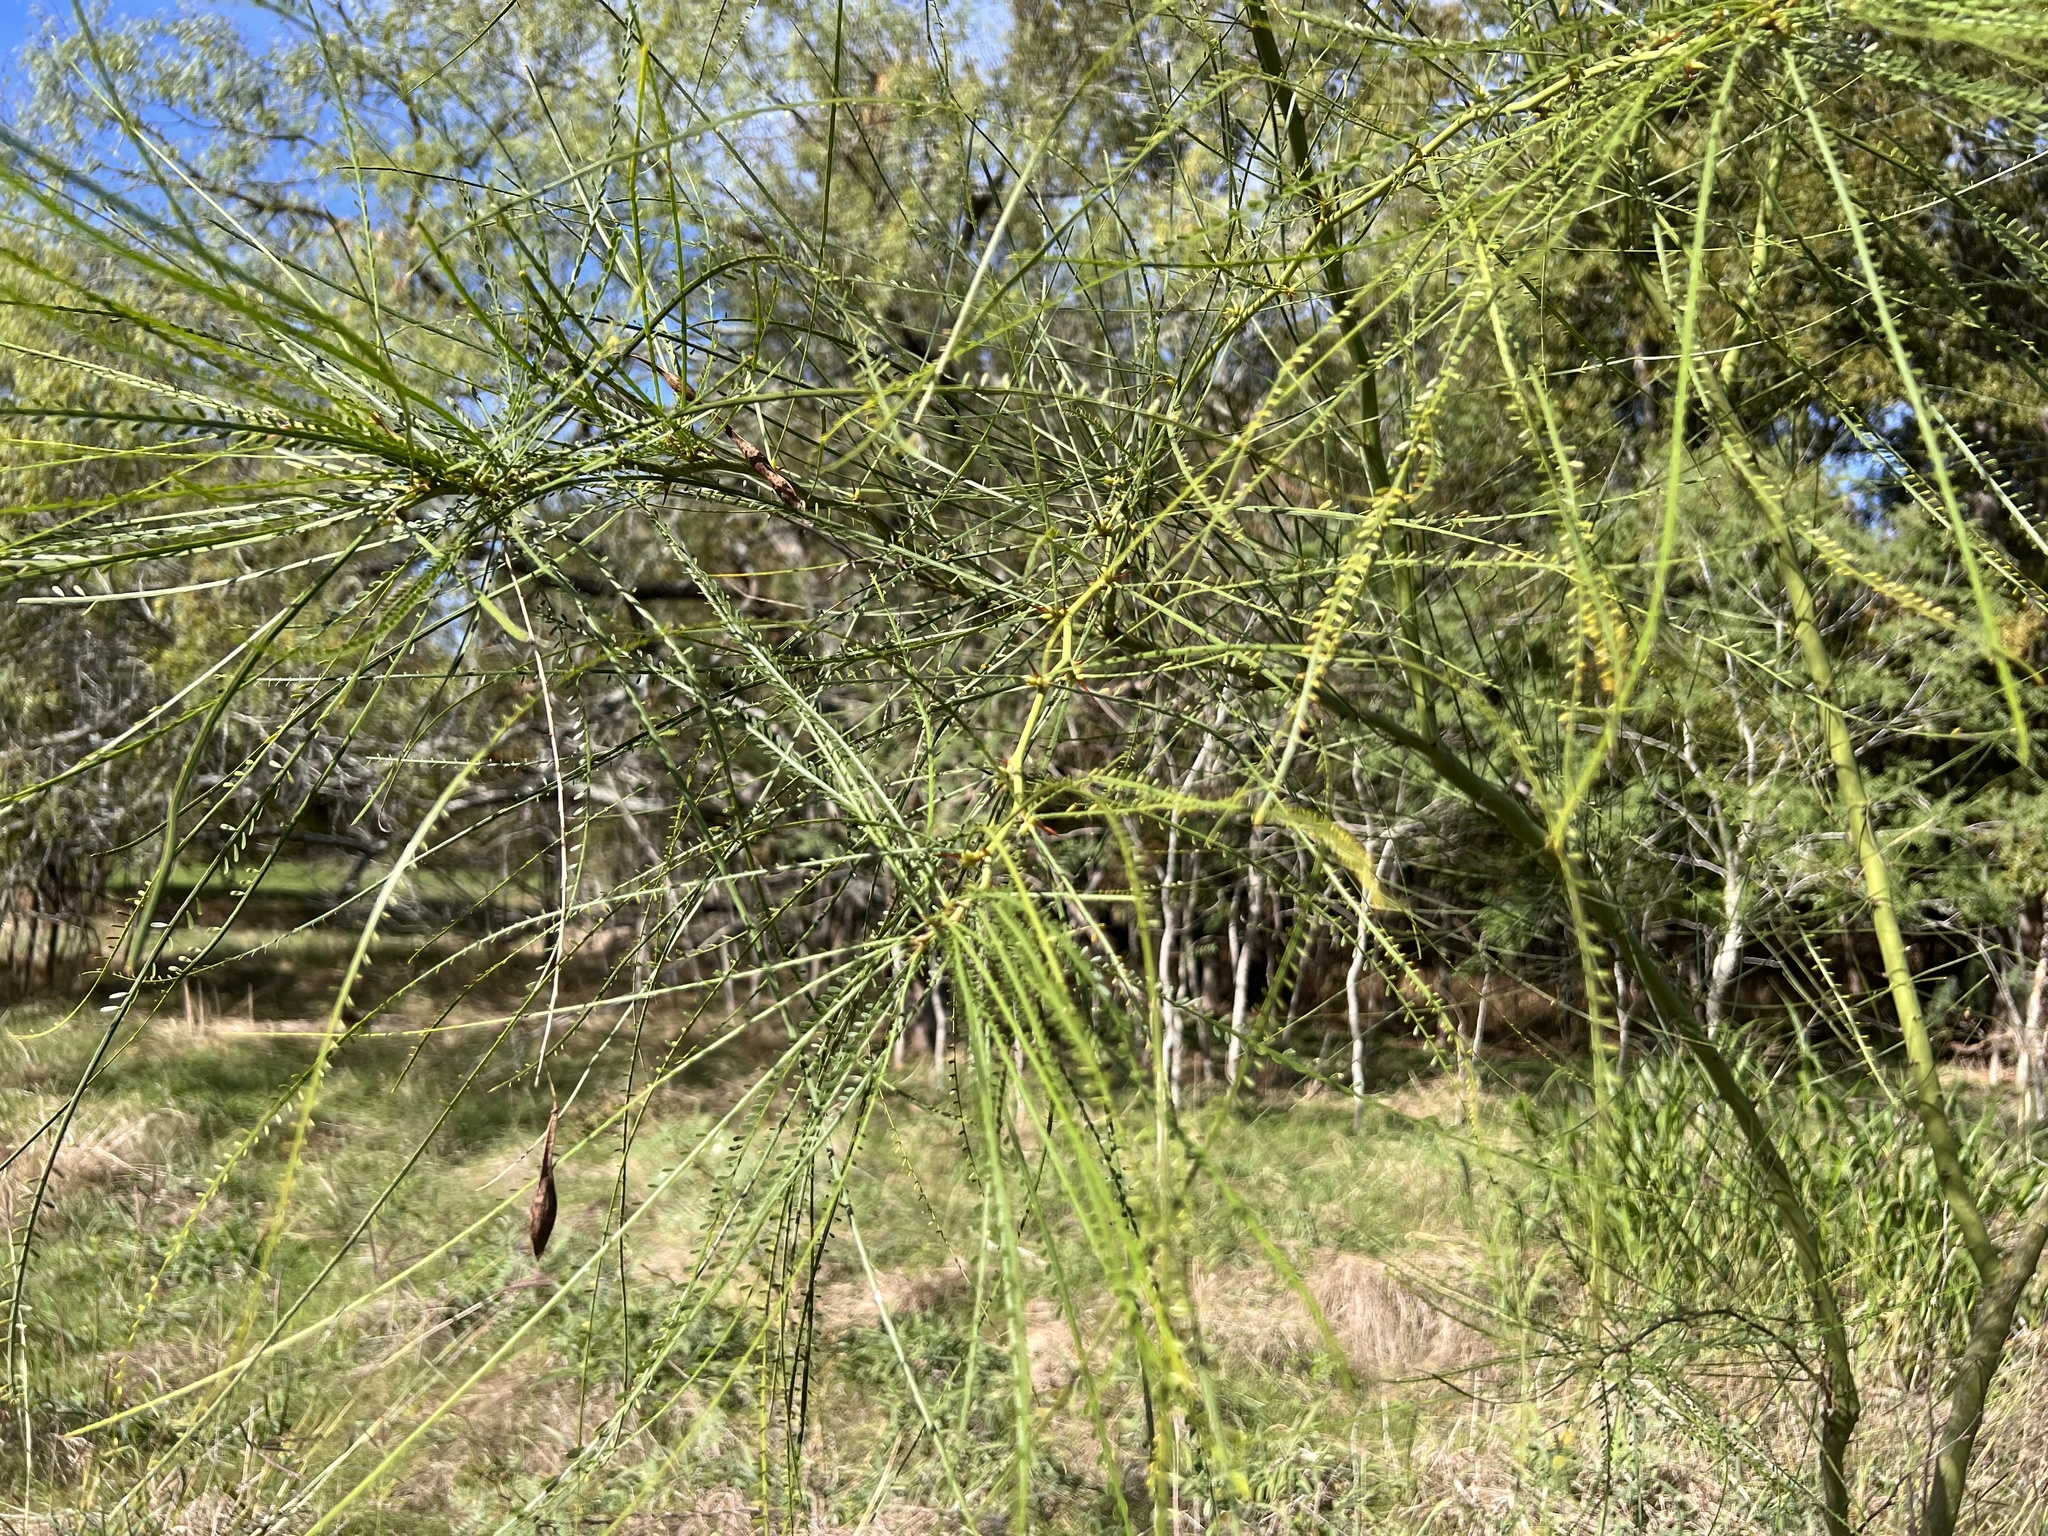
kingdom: Plantae
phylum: Tracheophyta
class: Magnoliopsida
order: Fabales
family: Fabaceae
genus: Parkinsonia
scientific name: Parkinsonia aculeata
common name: Jerusalem thorn
